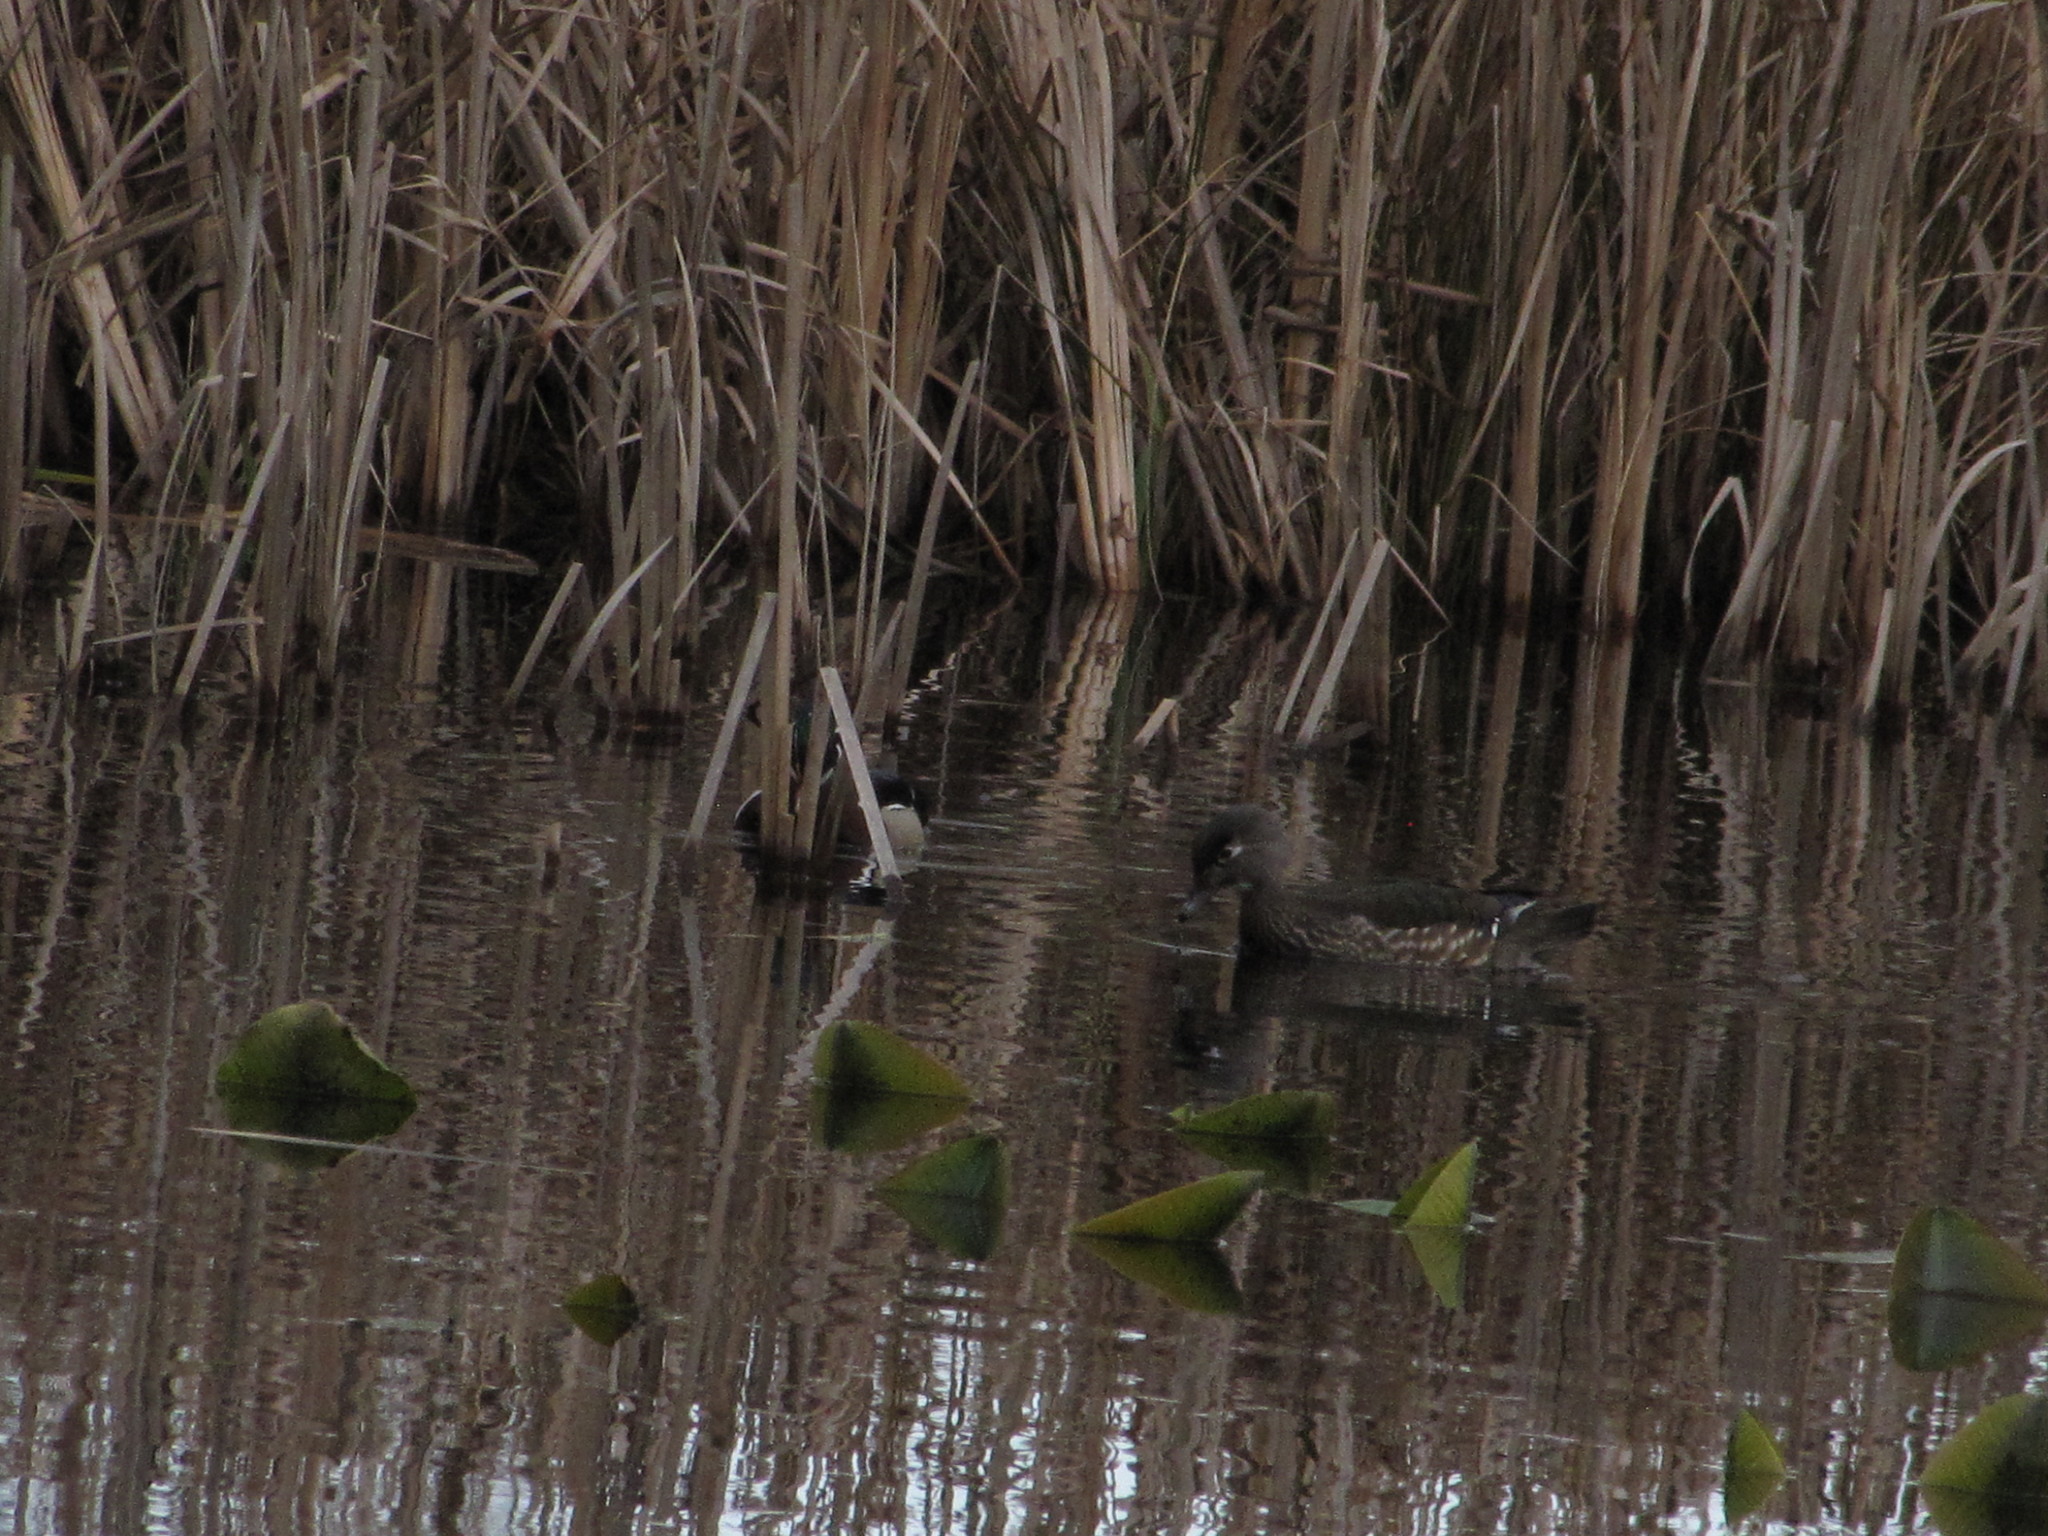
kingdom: Animalia
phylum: Chordata
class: Aves
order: Anseriformes
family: Anatidae
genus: Aix
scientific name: Aix sponsa
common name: Wood duck
